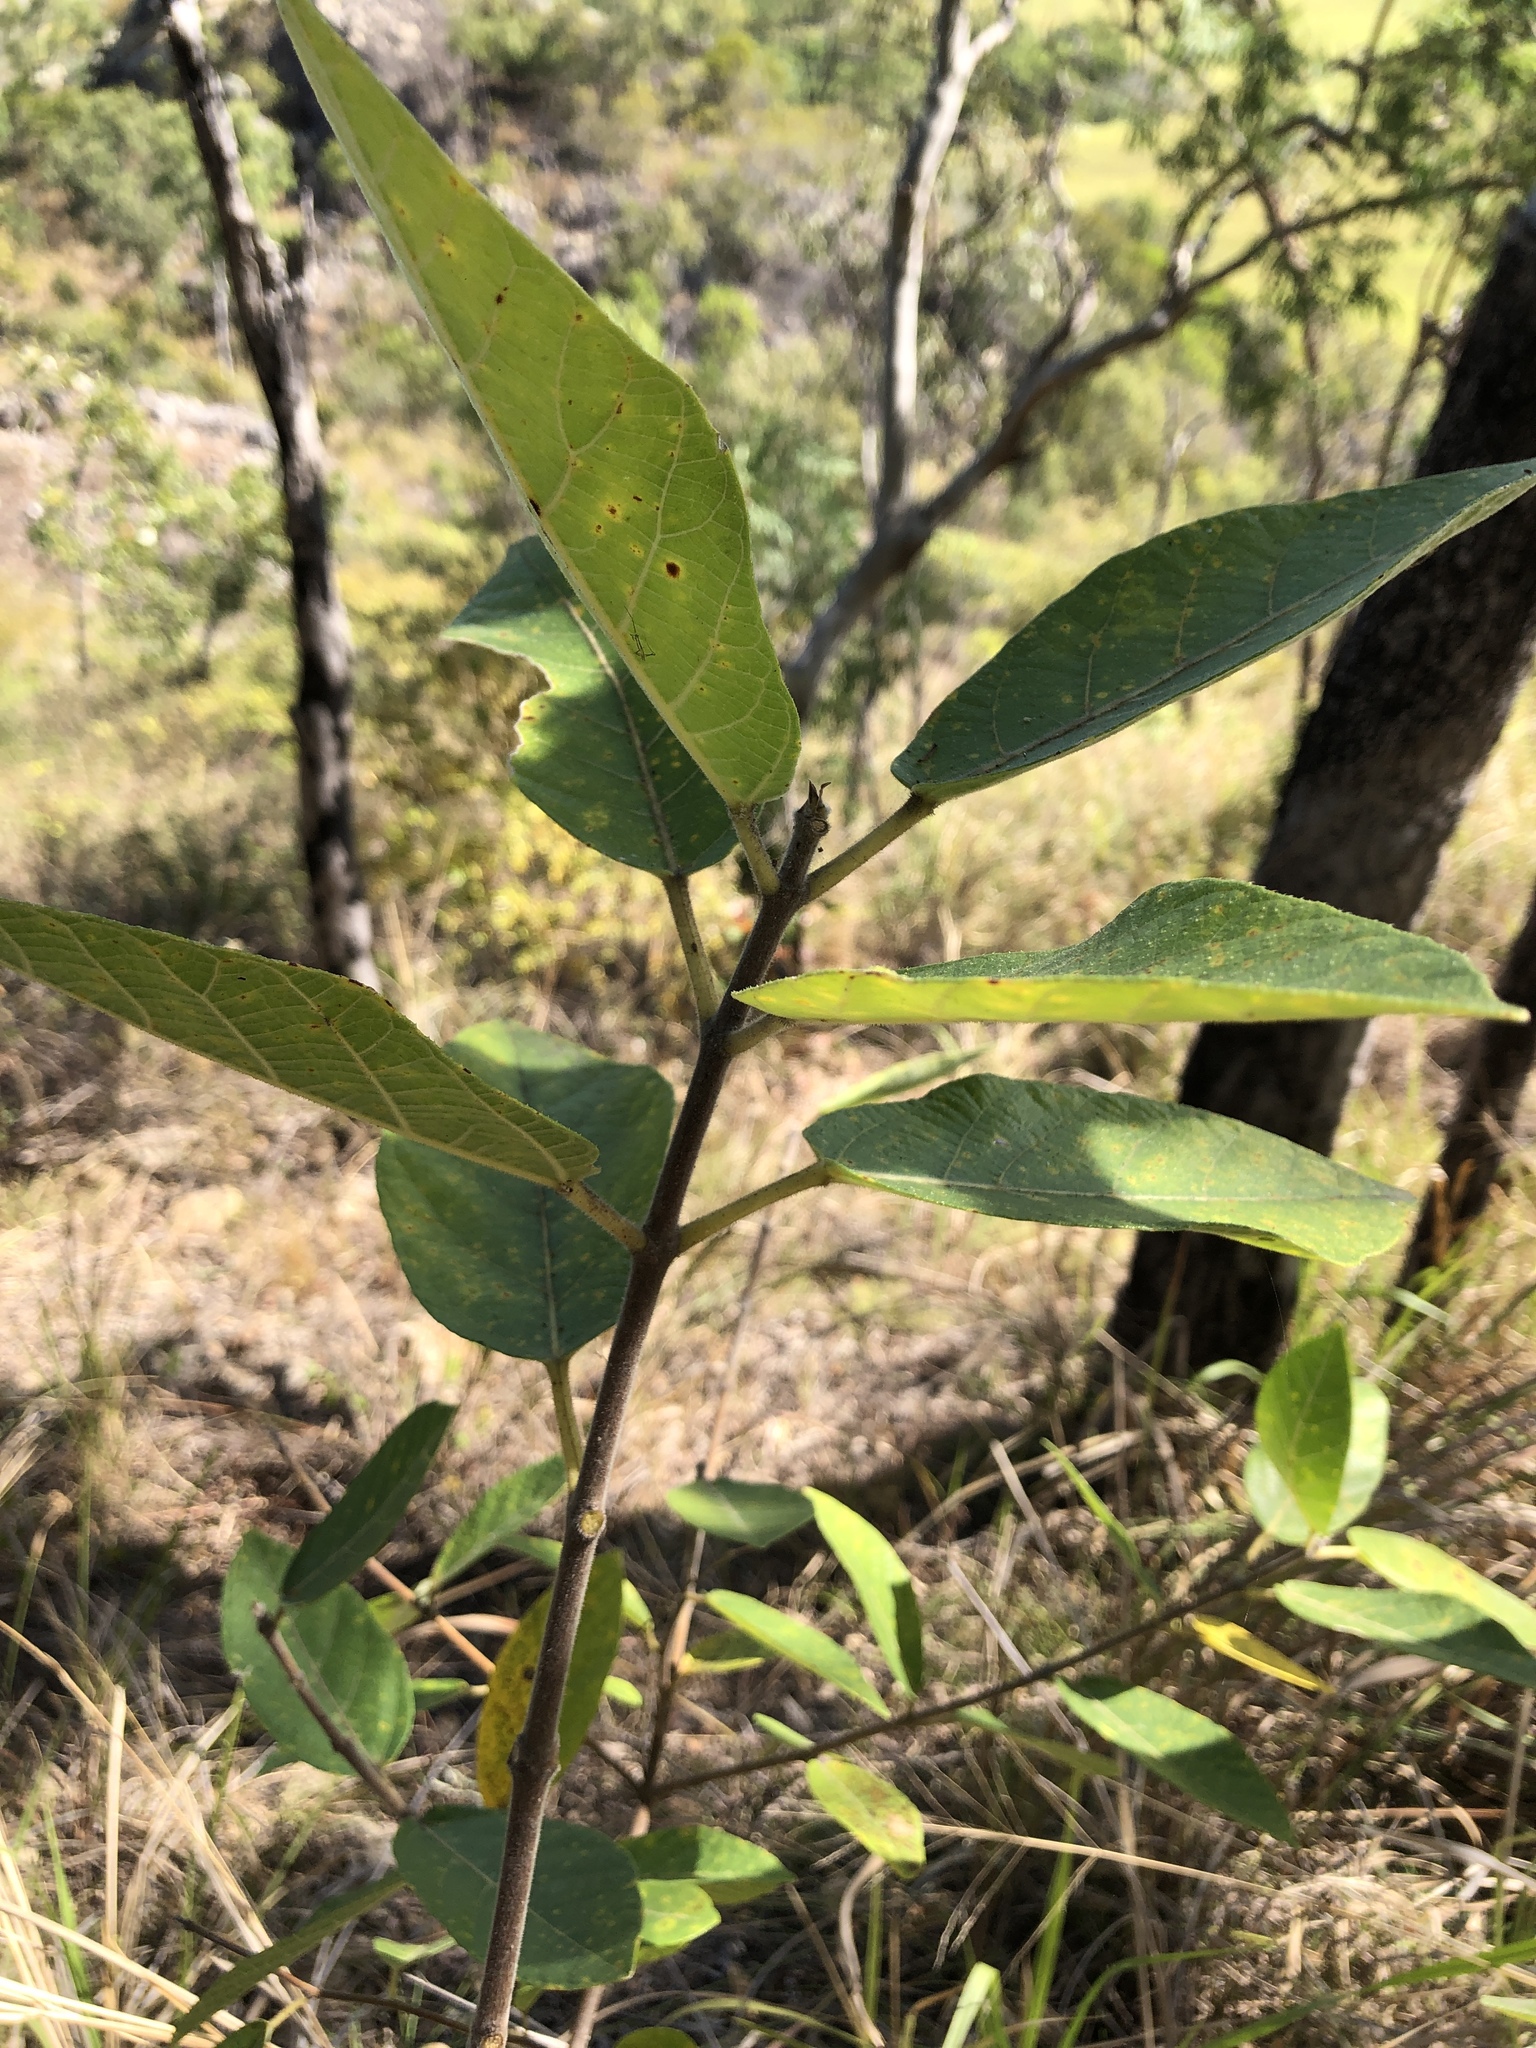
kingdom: Plantae
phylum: Tracheophyta
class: Magnoliopsida
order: Rosales
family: Moraceae
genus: Ficus
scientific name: Ficus opposita
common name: Figwood
